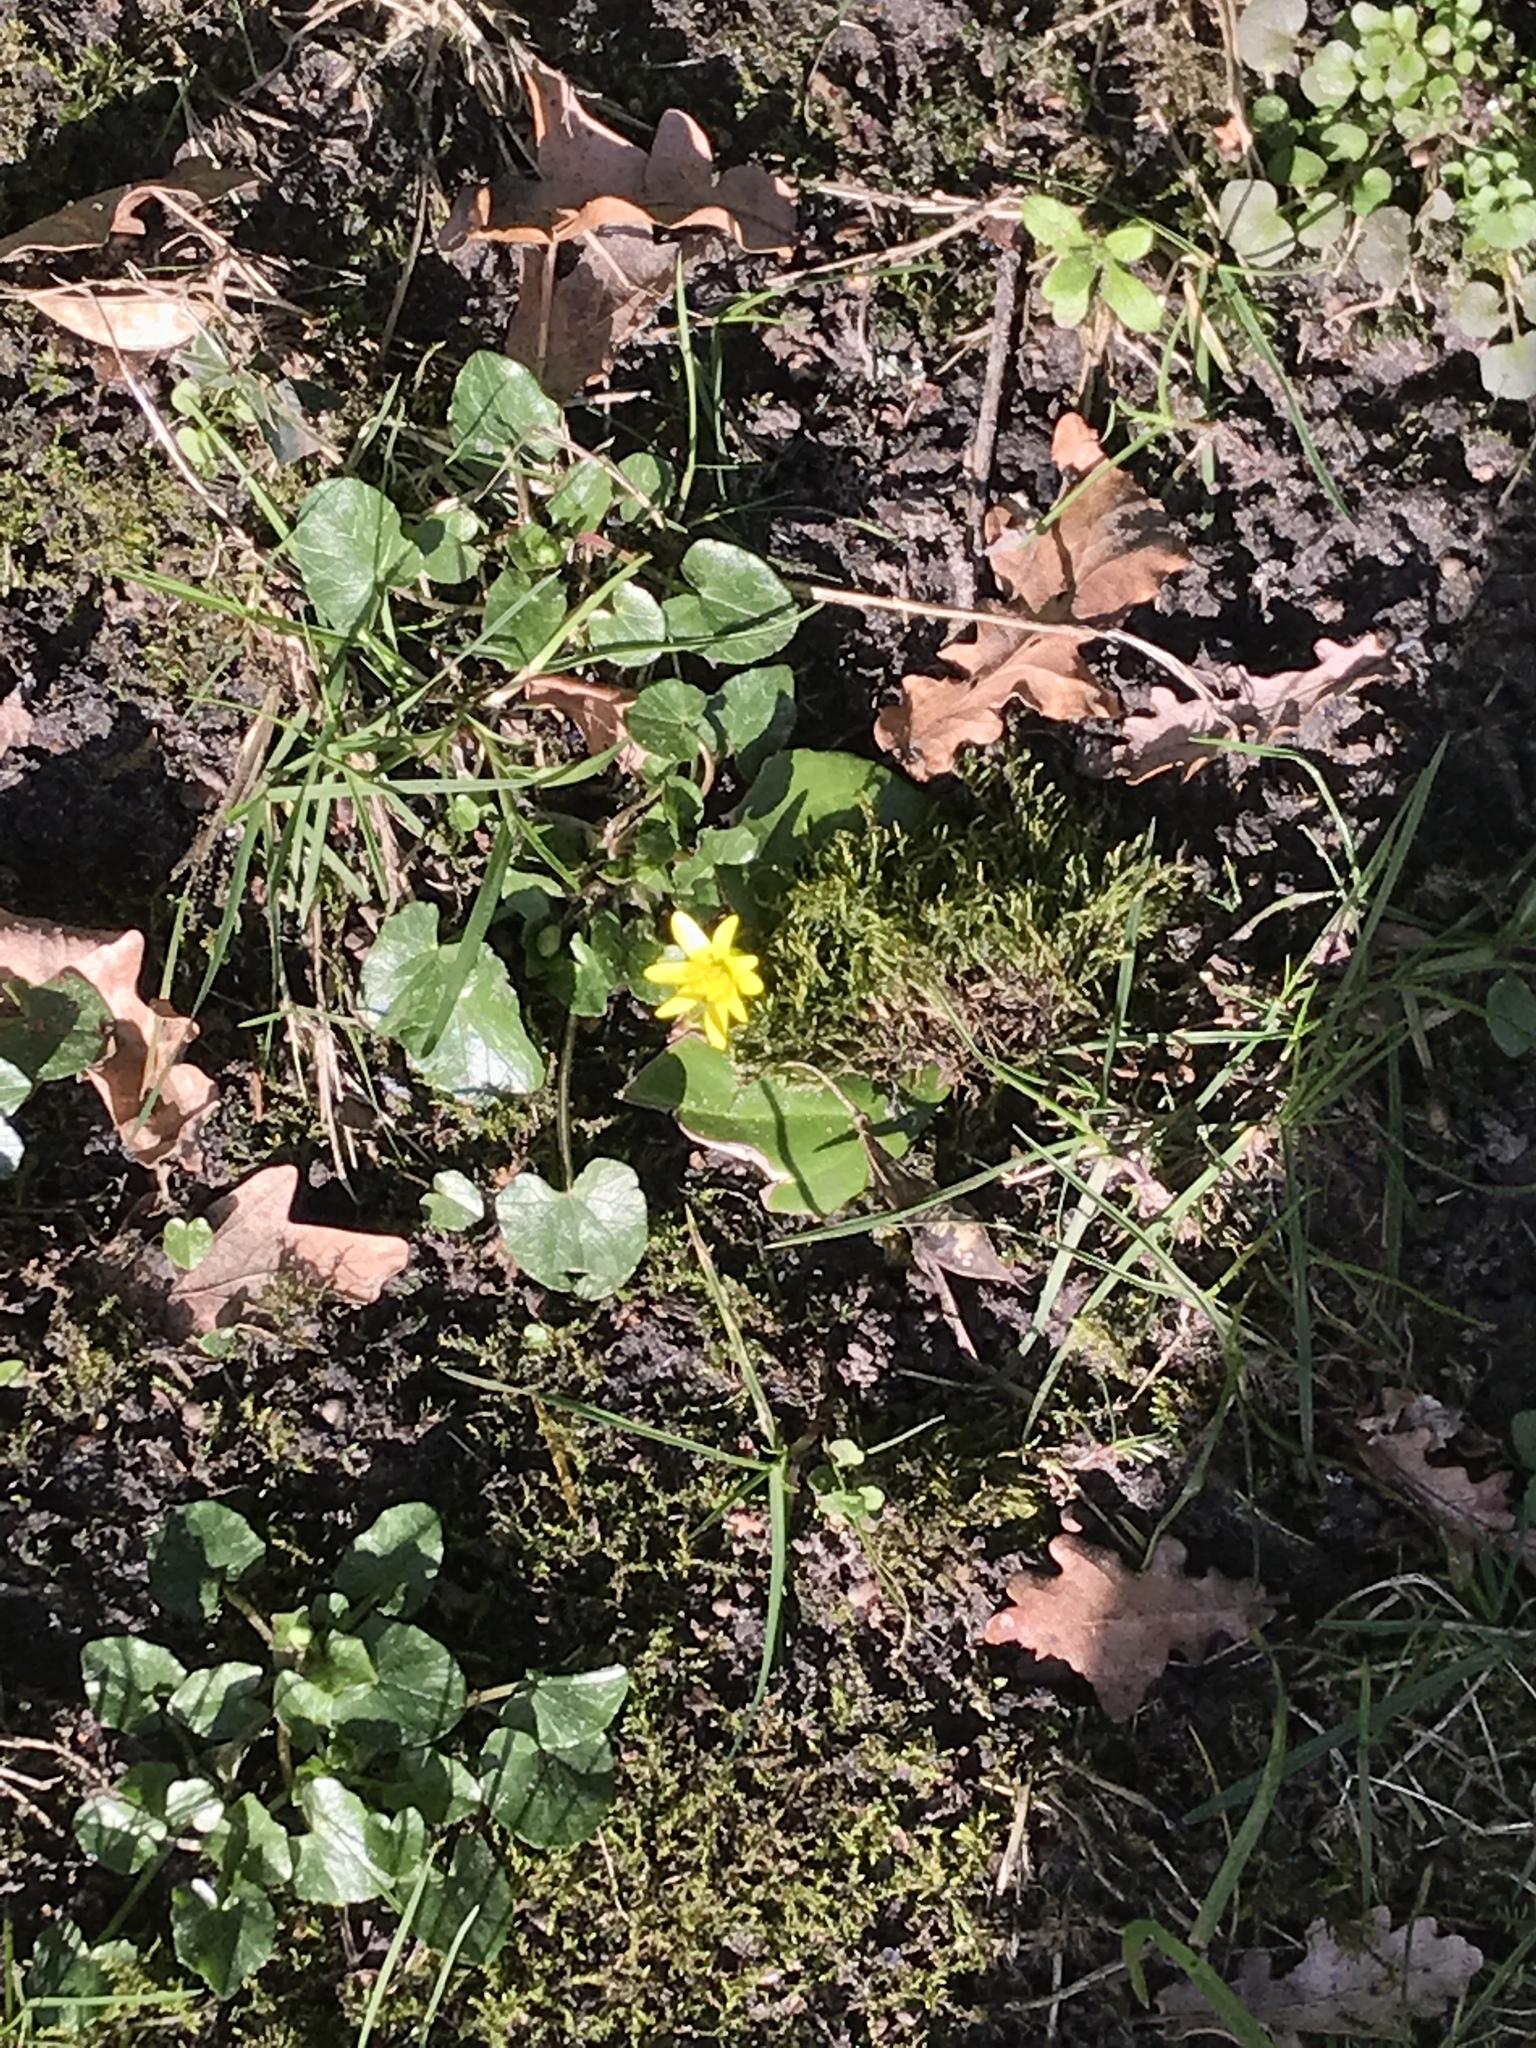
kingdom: Plantae
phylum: Tracheophyta
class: Magnoliopsida
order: Ranunculales
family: Ranunculaceae
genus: Ficaria
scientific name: Ficaria verna
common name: Lesser celandine
